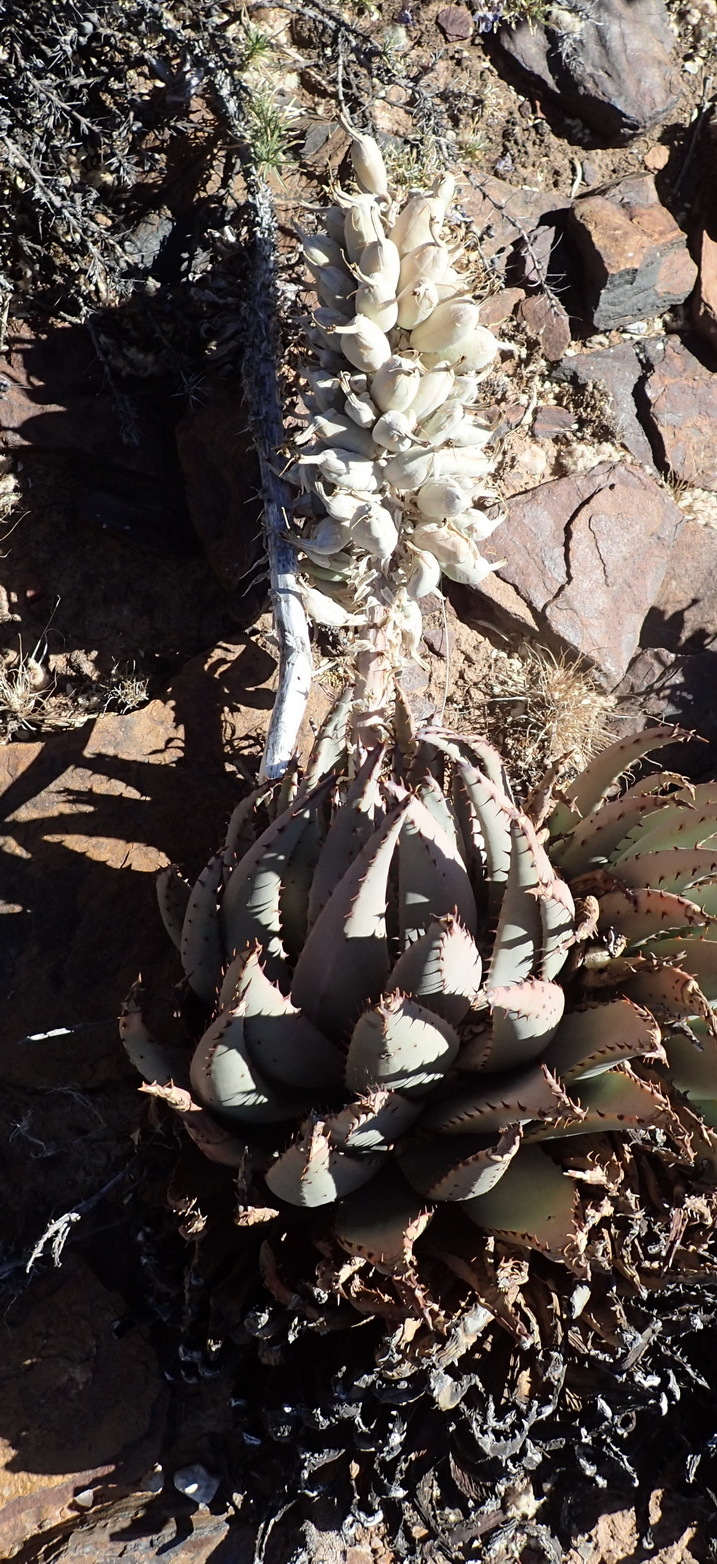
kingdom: Plantae
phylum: Tracheophyta
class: Liliopsida
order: Asparagales
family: Asphodelaceae
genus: Aloe
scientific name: Aloe claviflora
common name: Cannon aloe
